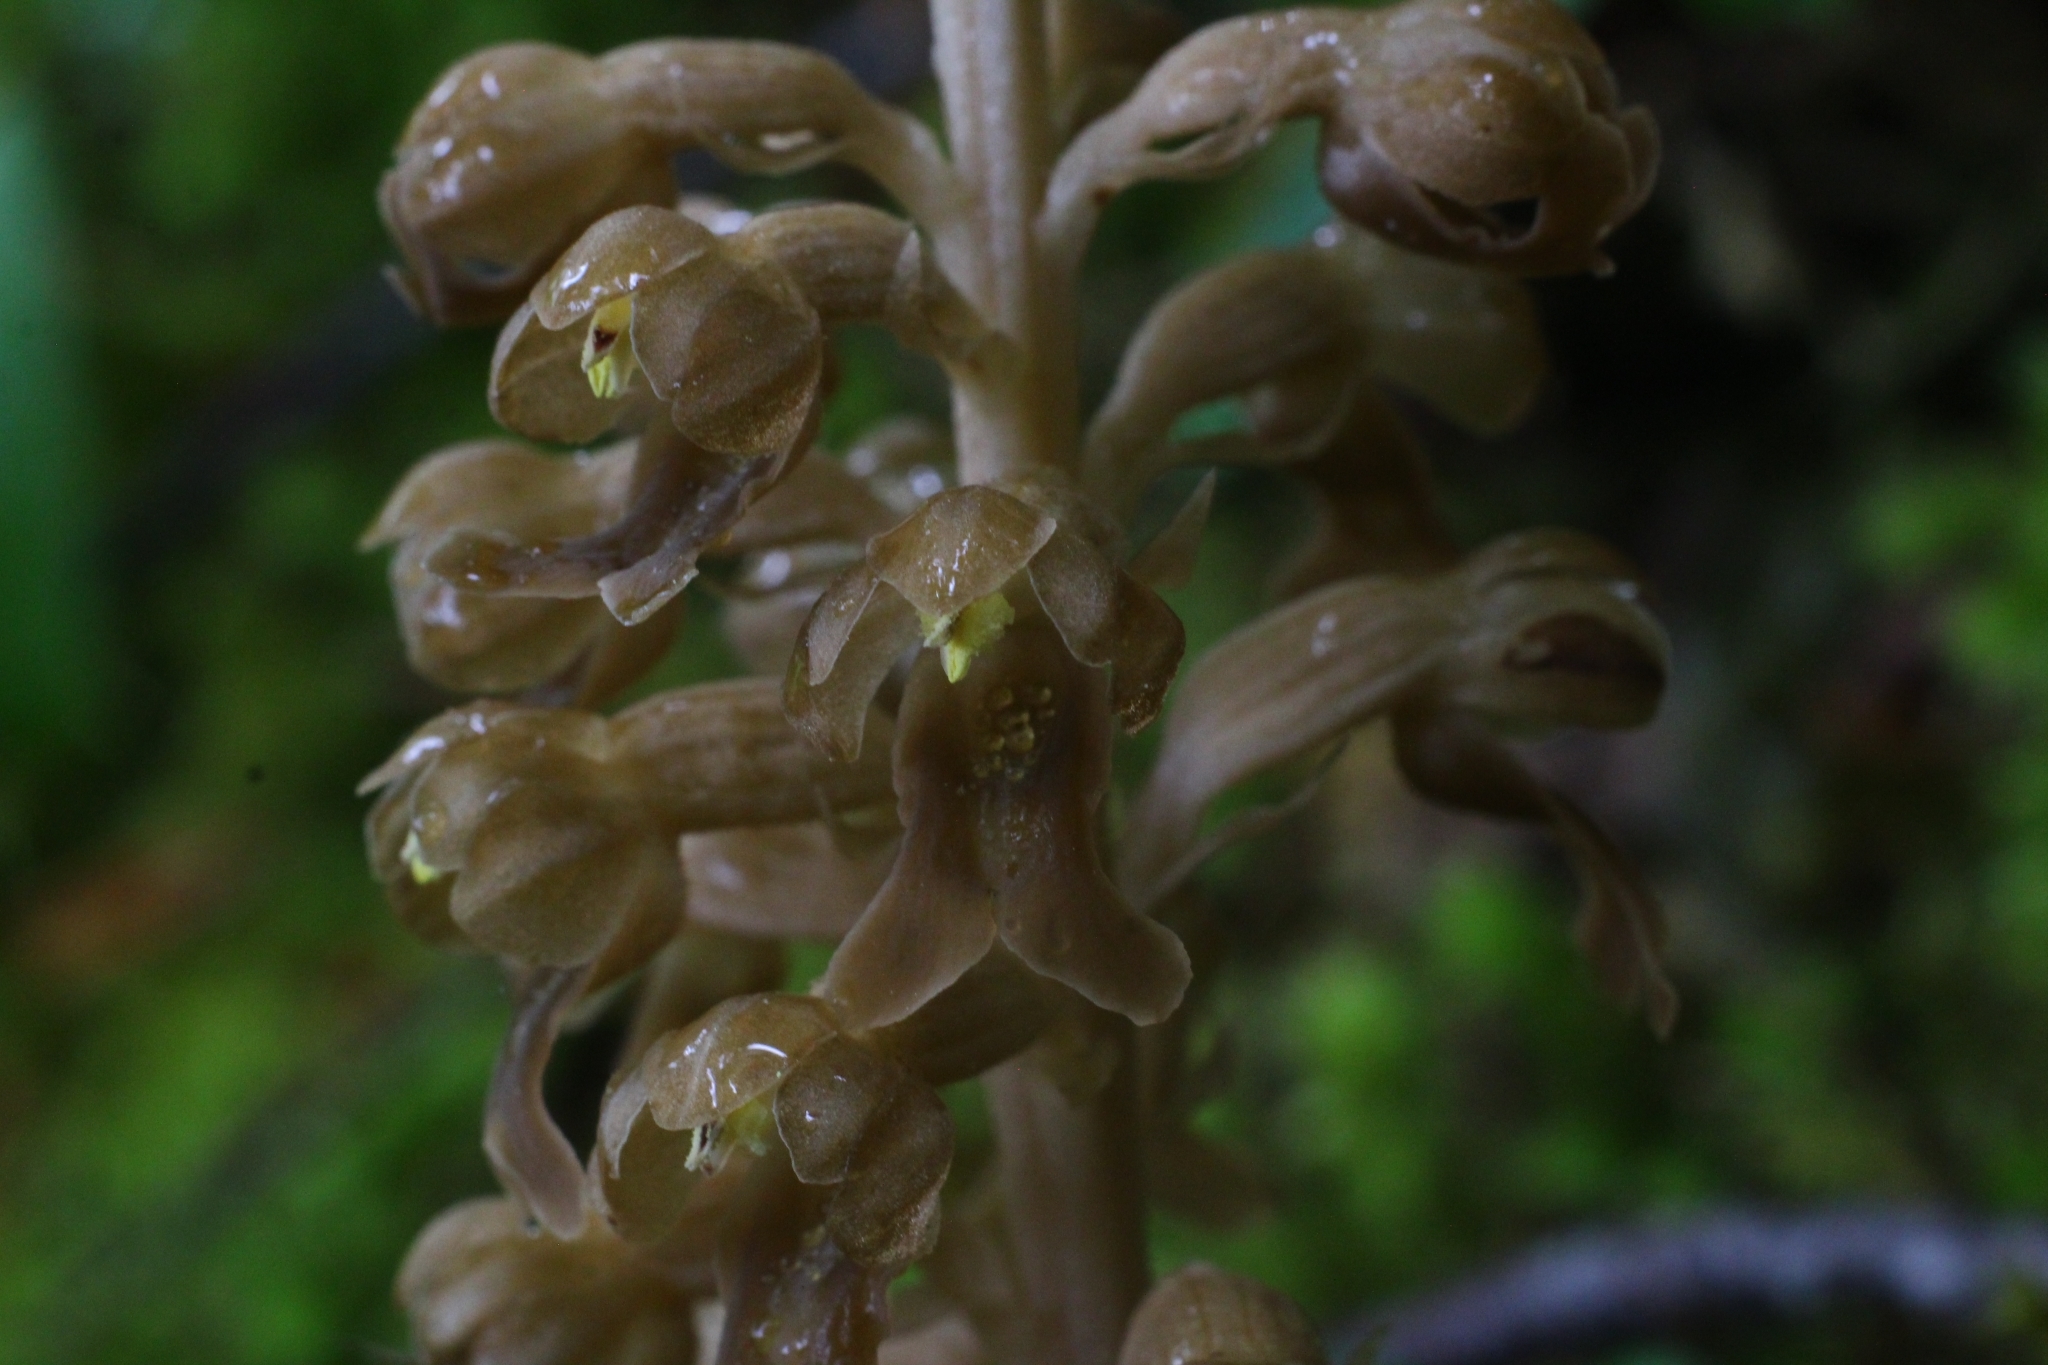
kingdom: Plantae
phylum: Tracheophyta
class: Liliopsida
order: Asparagales
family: Orchidaceae
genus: Neottia
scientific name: Neottia nidus-avis
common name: Bird's-nest orchid
